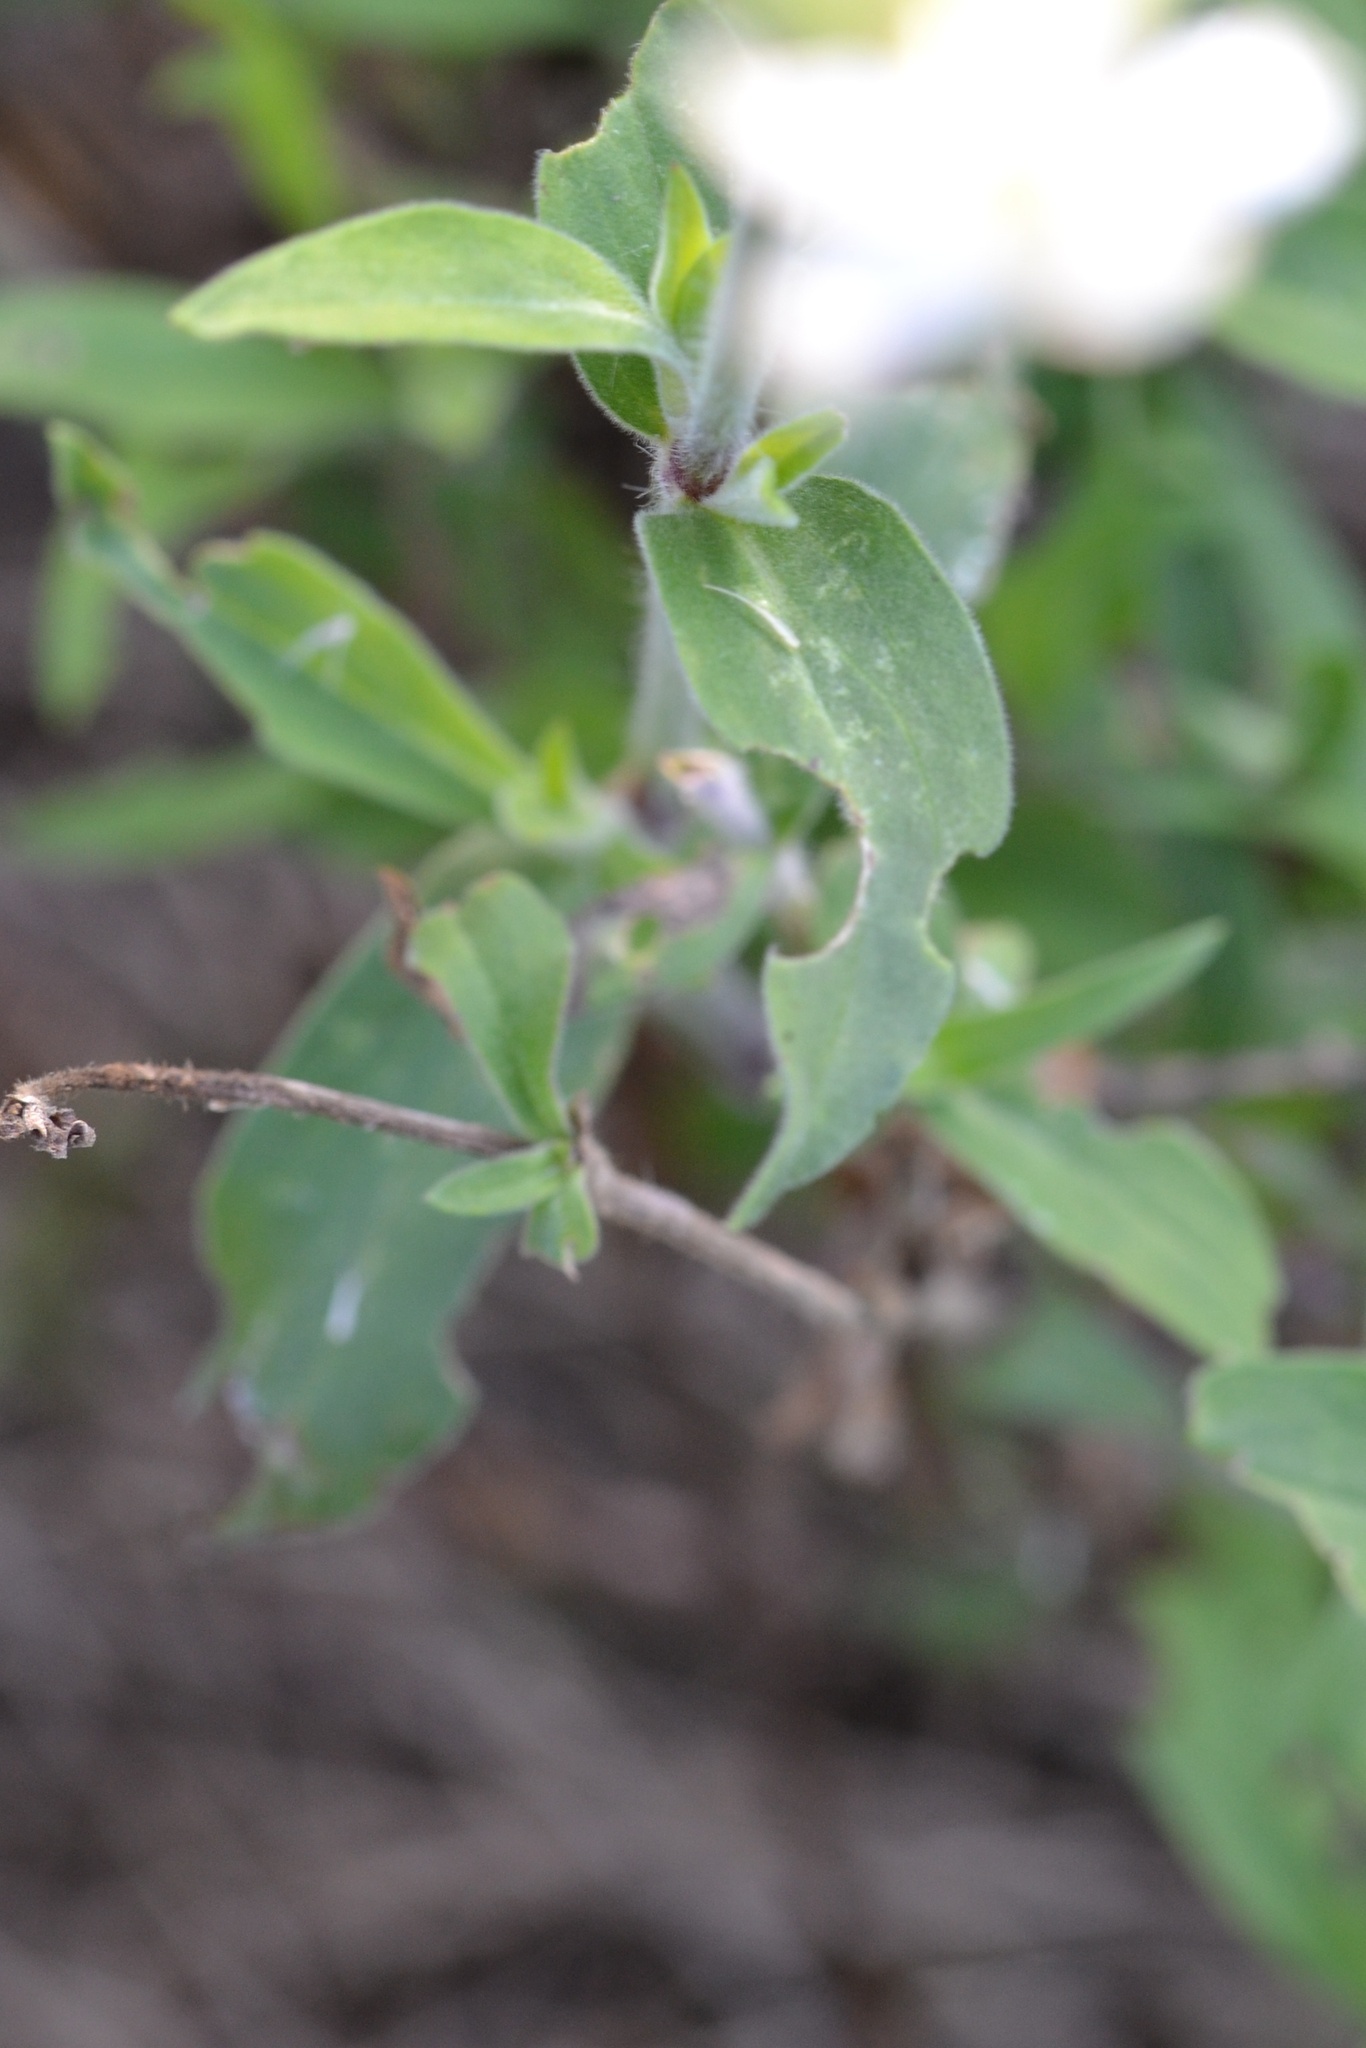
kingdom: Plantae
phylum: Tracheophyta
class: Magnoliopsida
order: Caryophyllales
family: Caryophyllaceae
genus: Silene
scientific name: Silene latifolia
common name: White campion
